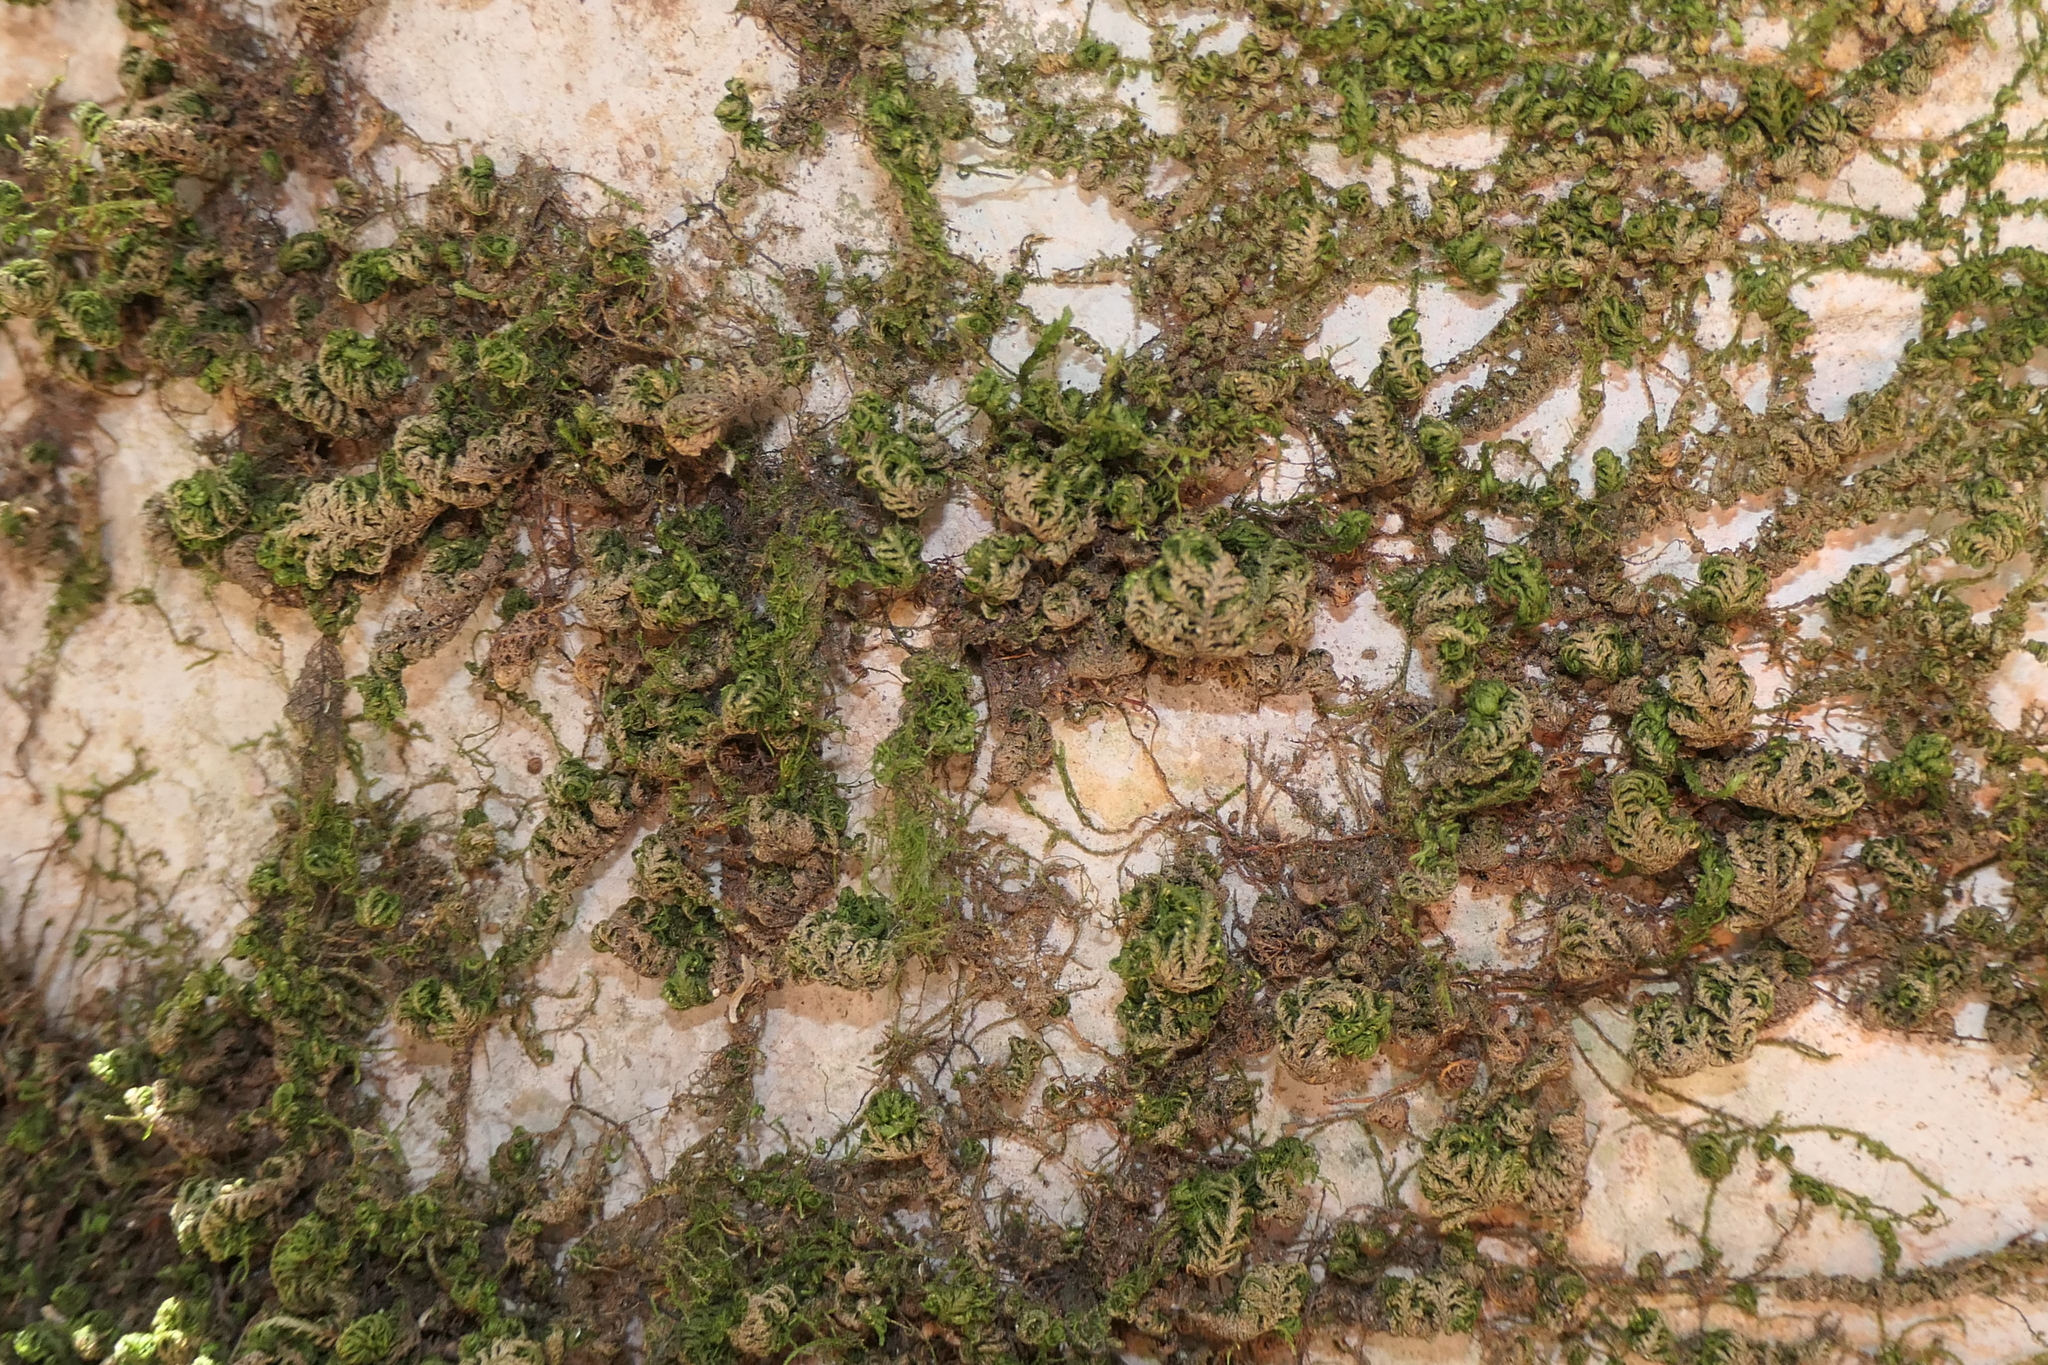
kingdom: Plantae
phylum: Bryophyta
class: Bryopsida
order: Hypnales
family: Neckeraceae
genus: Leptodon
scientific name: Leptodon smithii
